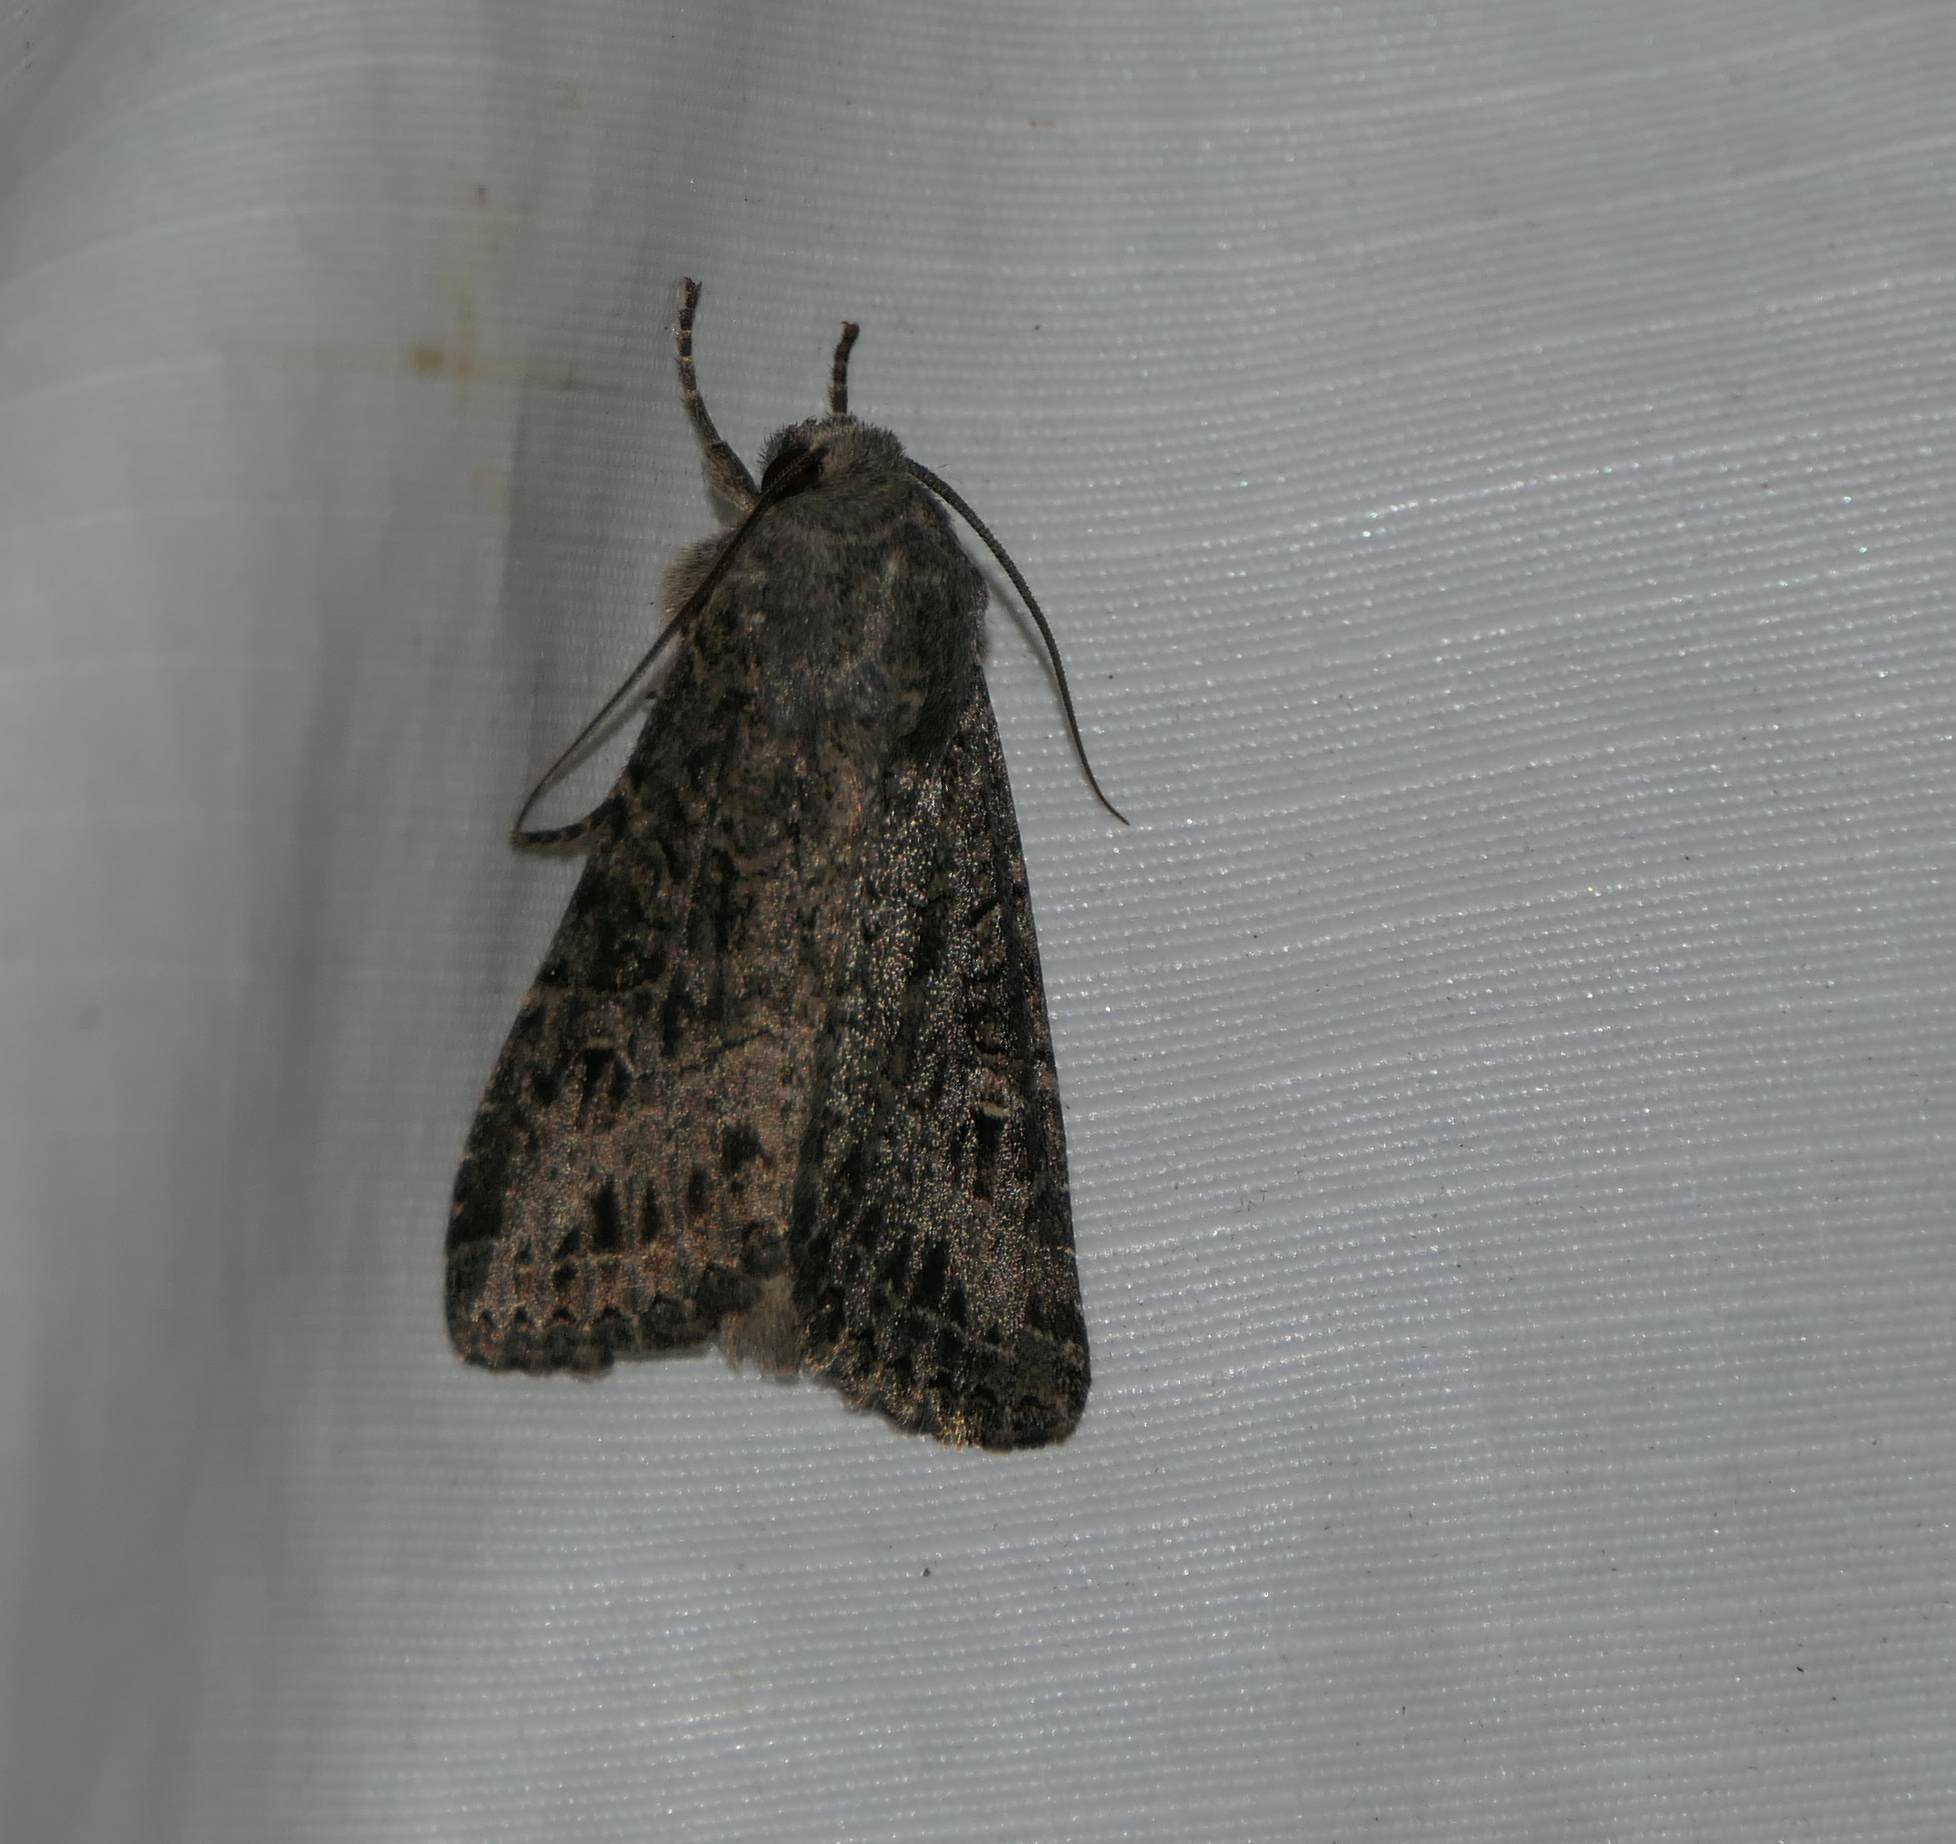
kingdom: Animalia
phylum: Arthropoda
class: Insecta
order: Lepidoptera
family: Noctuidae
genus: Apamea
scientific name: Apamea devastator
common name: Glassy cutworm
